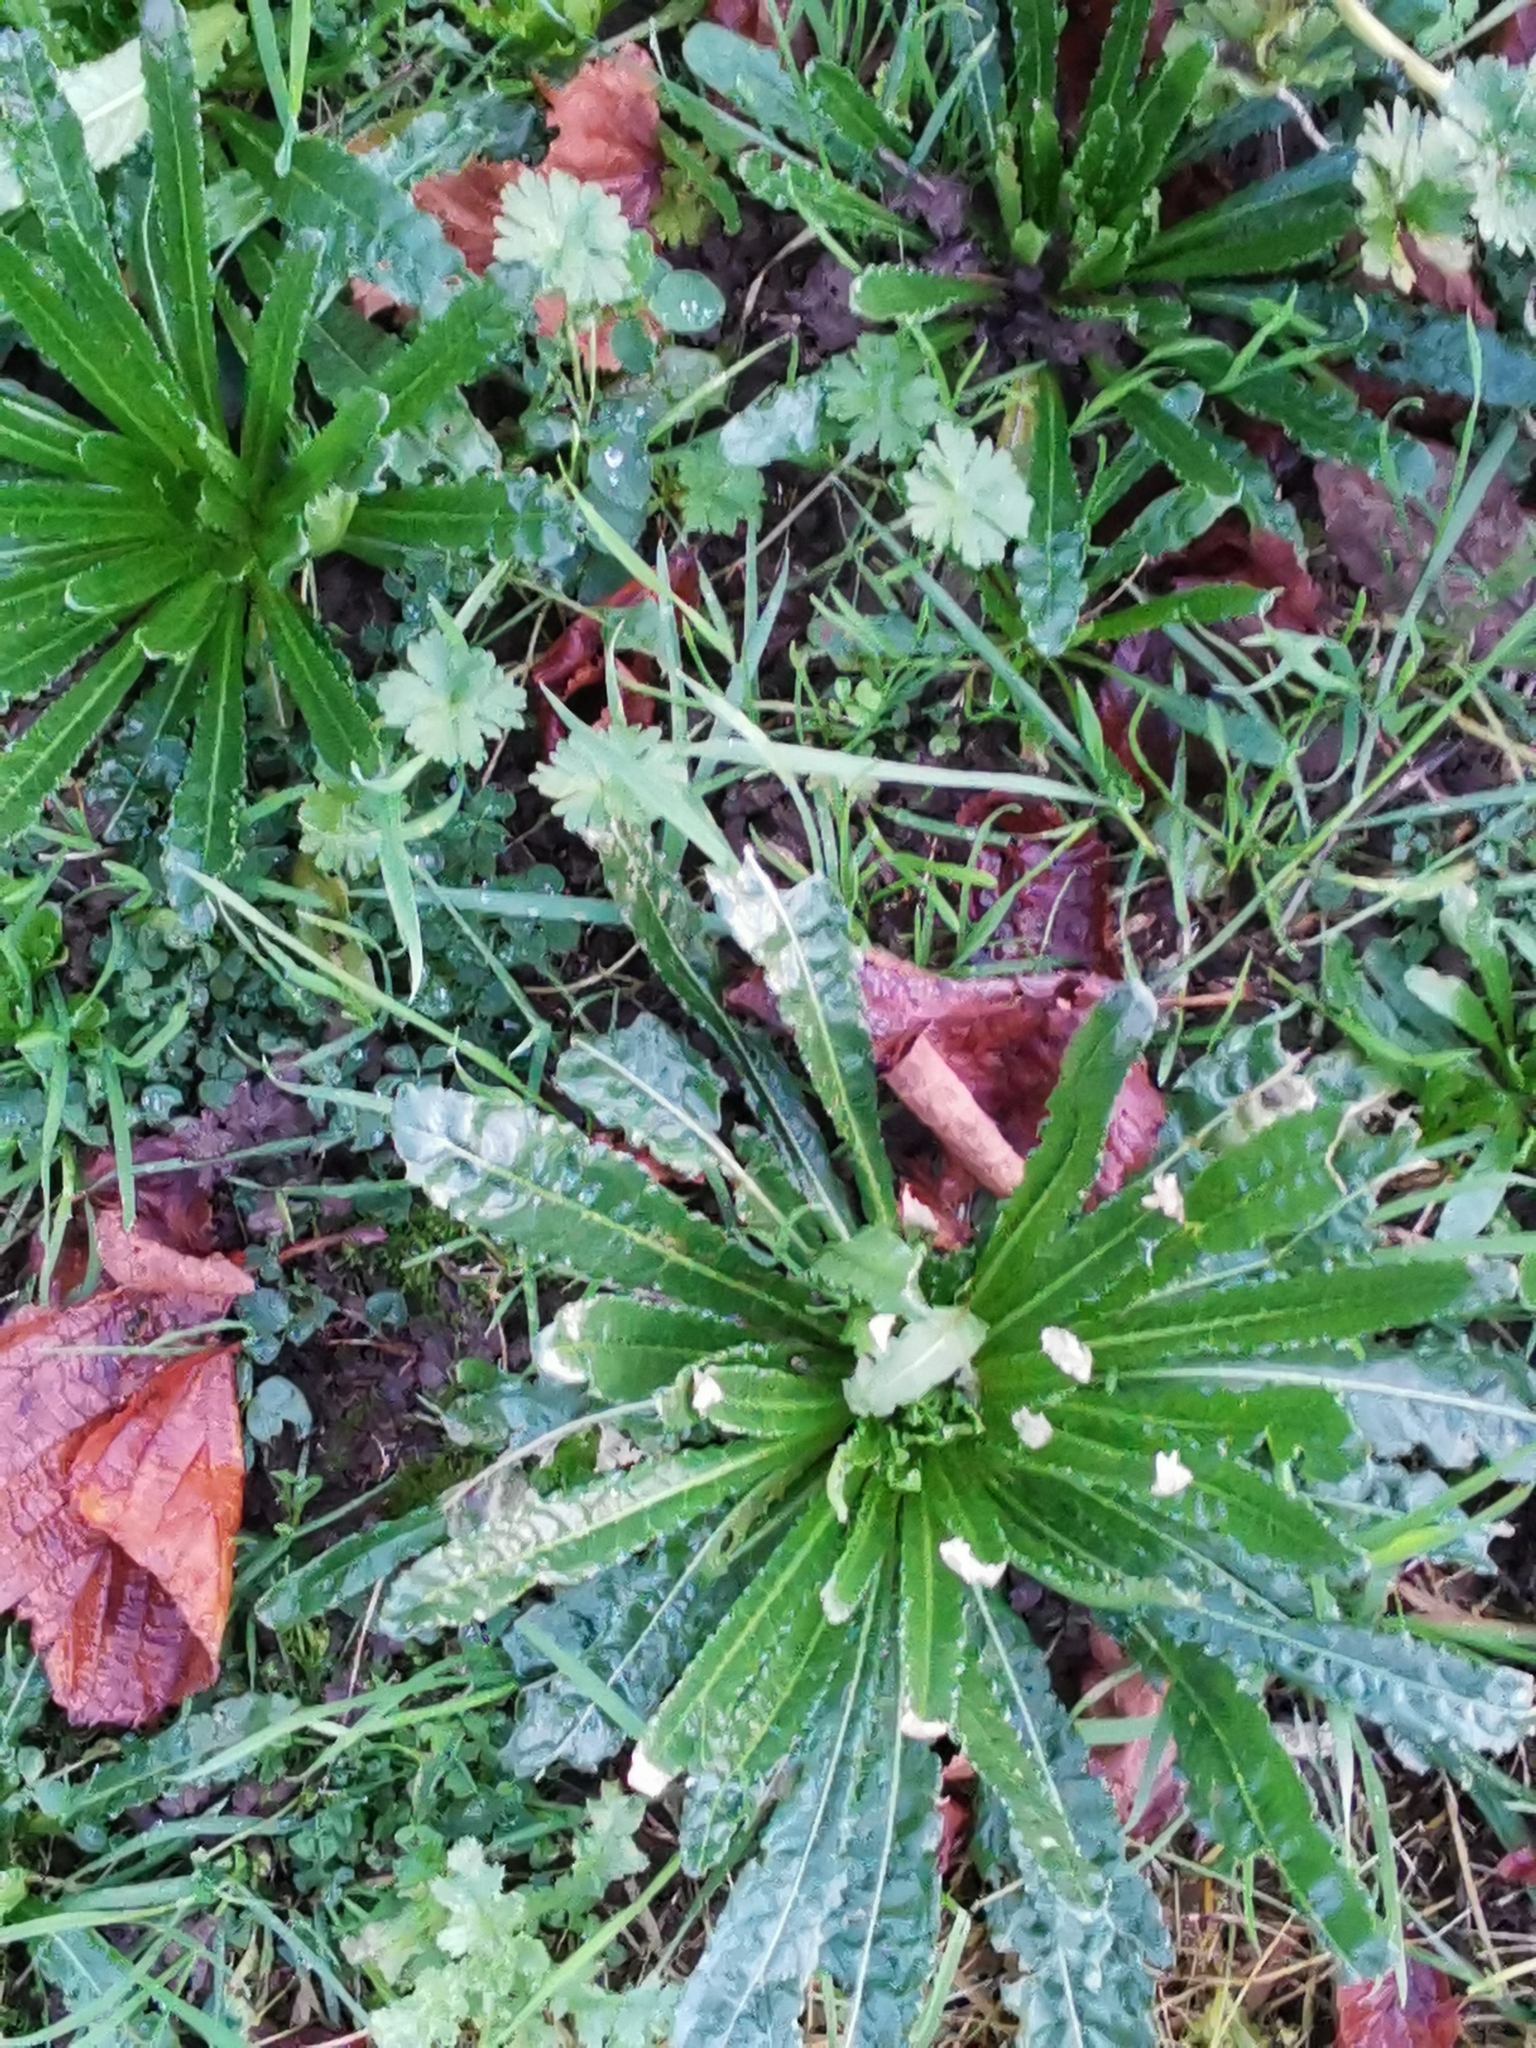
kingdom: Plantae
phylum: Tracheophyta
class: Magnoliopsida
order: Brassicales
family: Resedaceae
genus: Reseda
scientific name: Reseda luteola
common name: Weld
